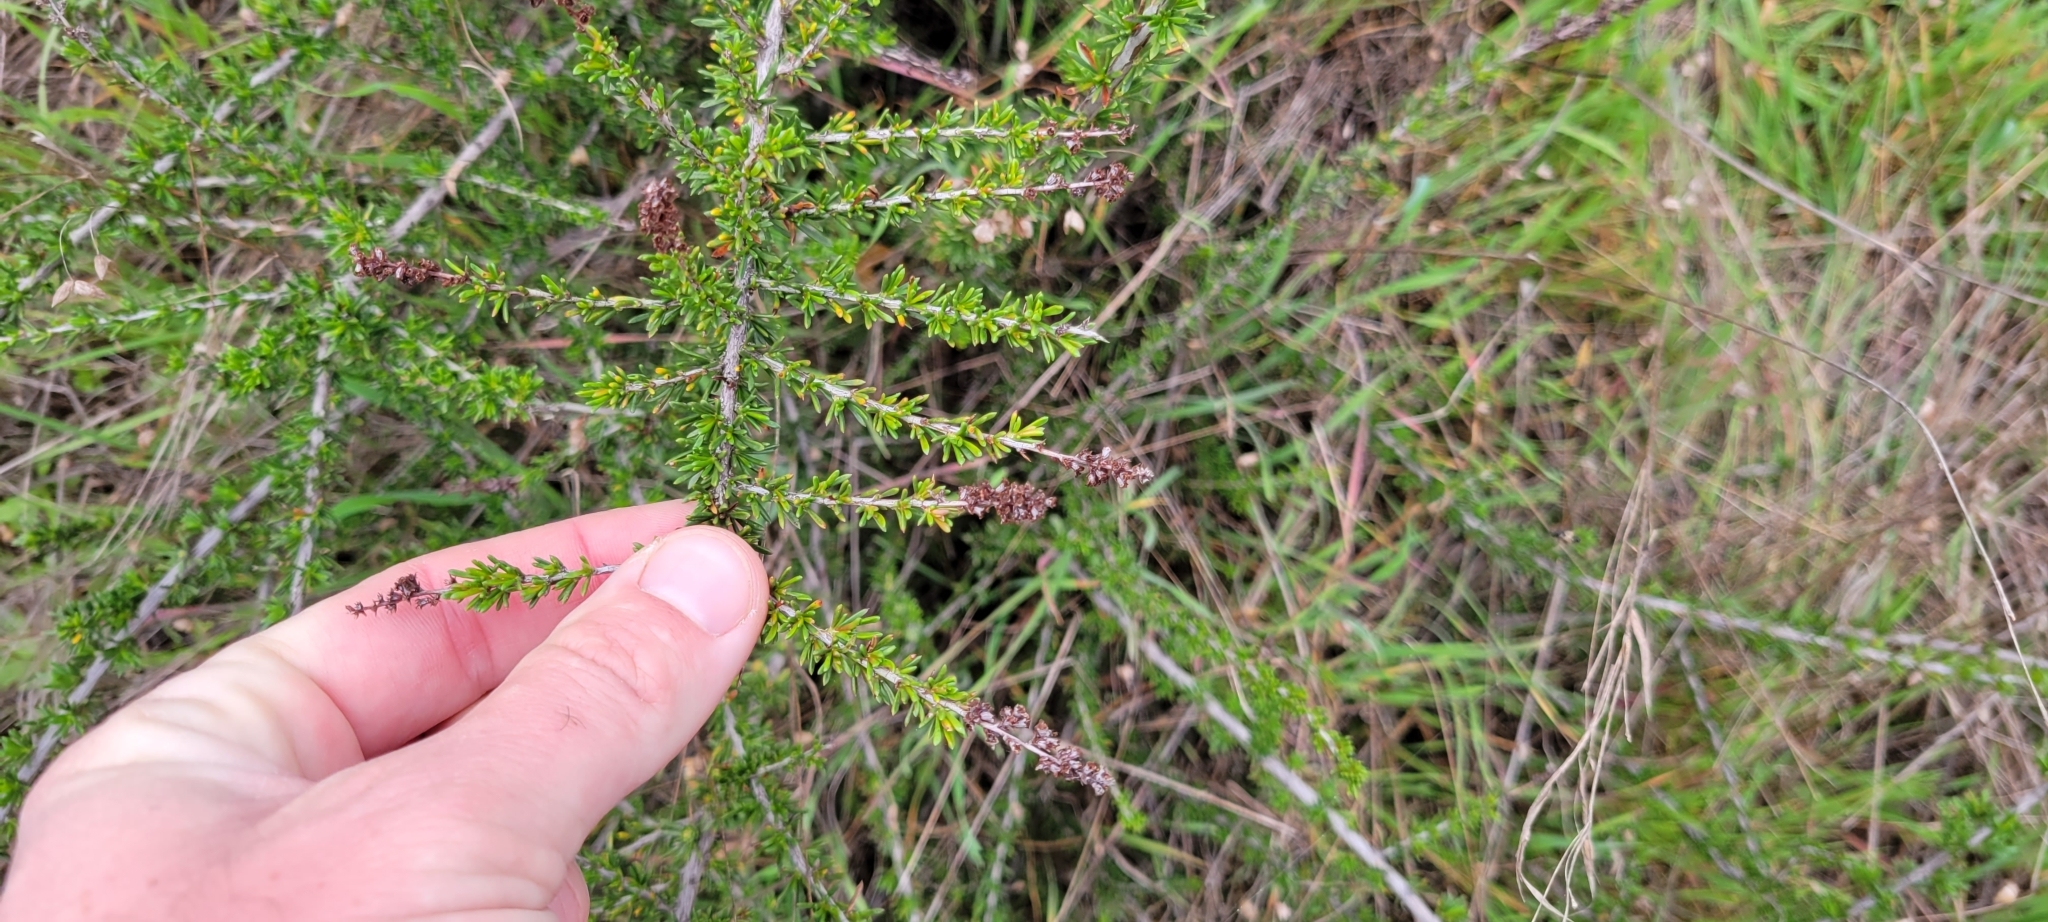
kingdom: Plantae
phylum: Tracheophyta
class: Magnoliopsida
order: Rosales
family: Rosaceae
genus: Adenostoma
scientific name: Adenostoma fasciculatum
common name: Chamise
